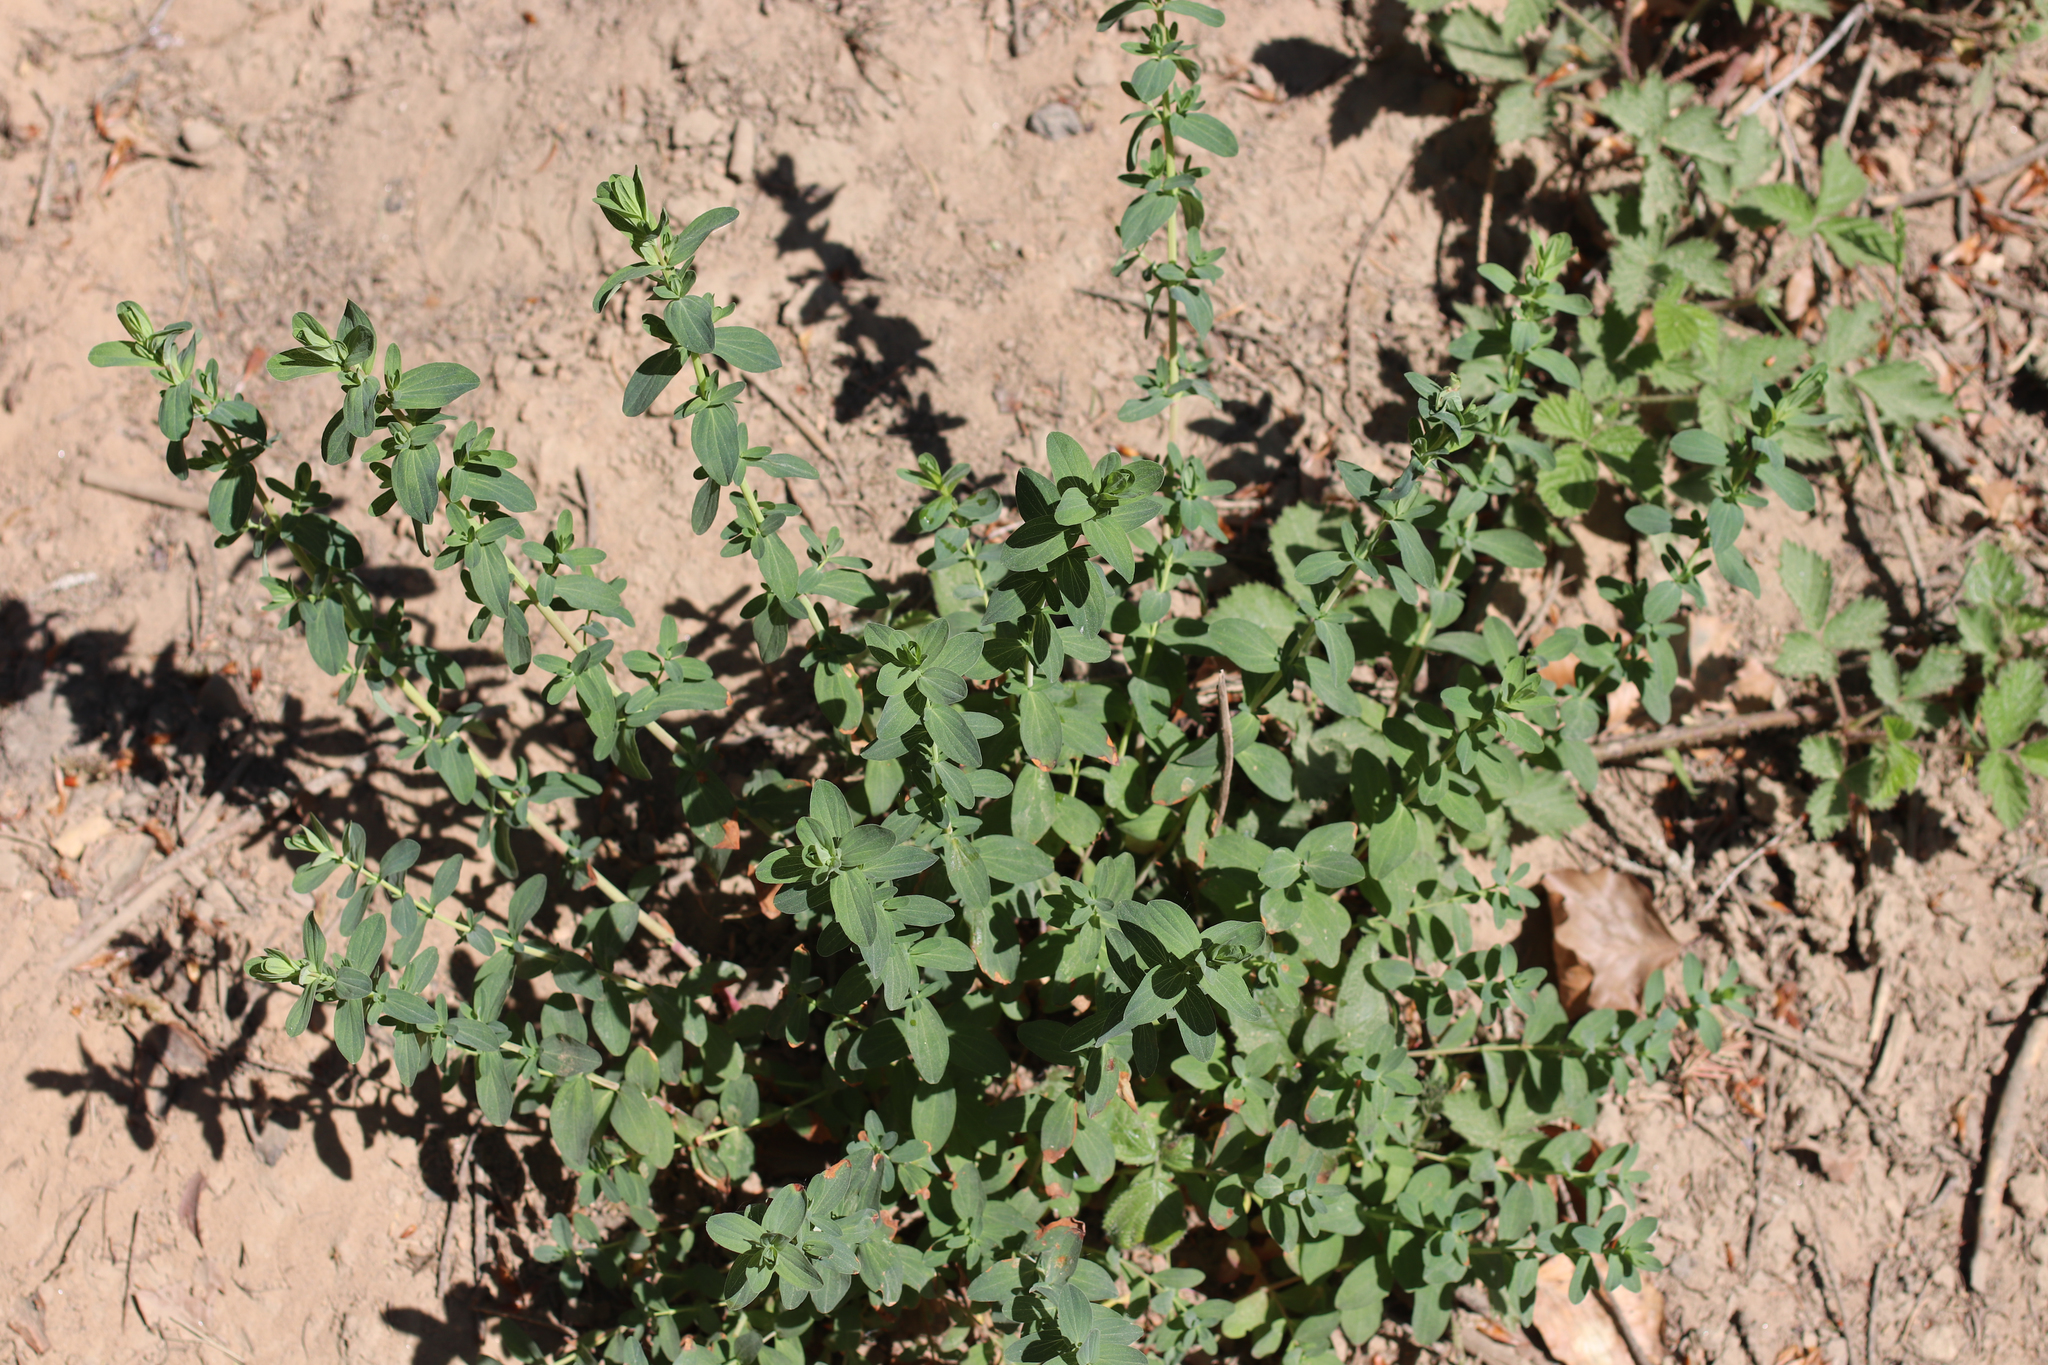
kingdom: Plantae
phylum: Tracheophyta
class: Magnoliopsida
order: Malpighiales
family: Hypericaceae
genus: Hypericum
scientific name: Hypericum perforatum
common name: Common st. johnswort
